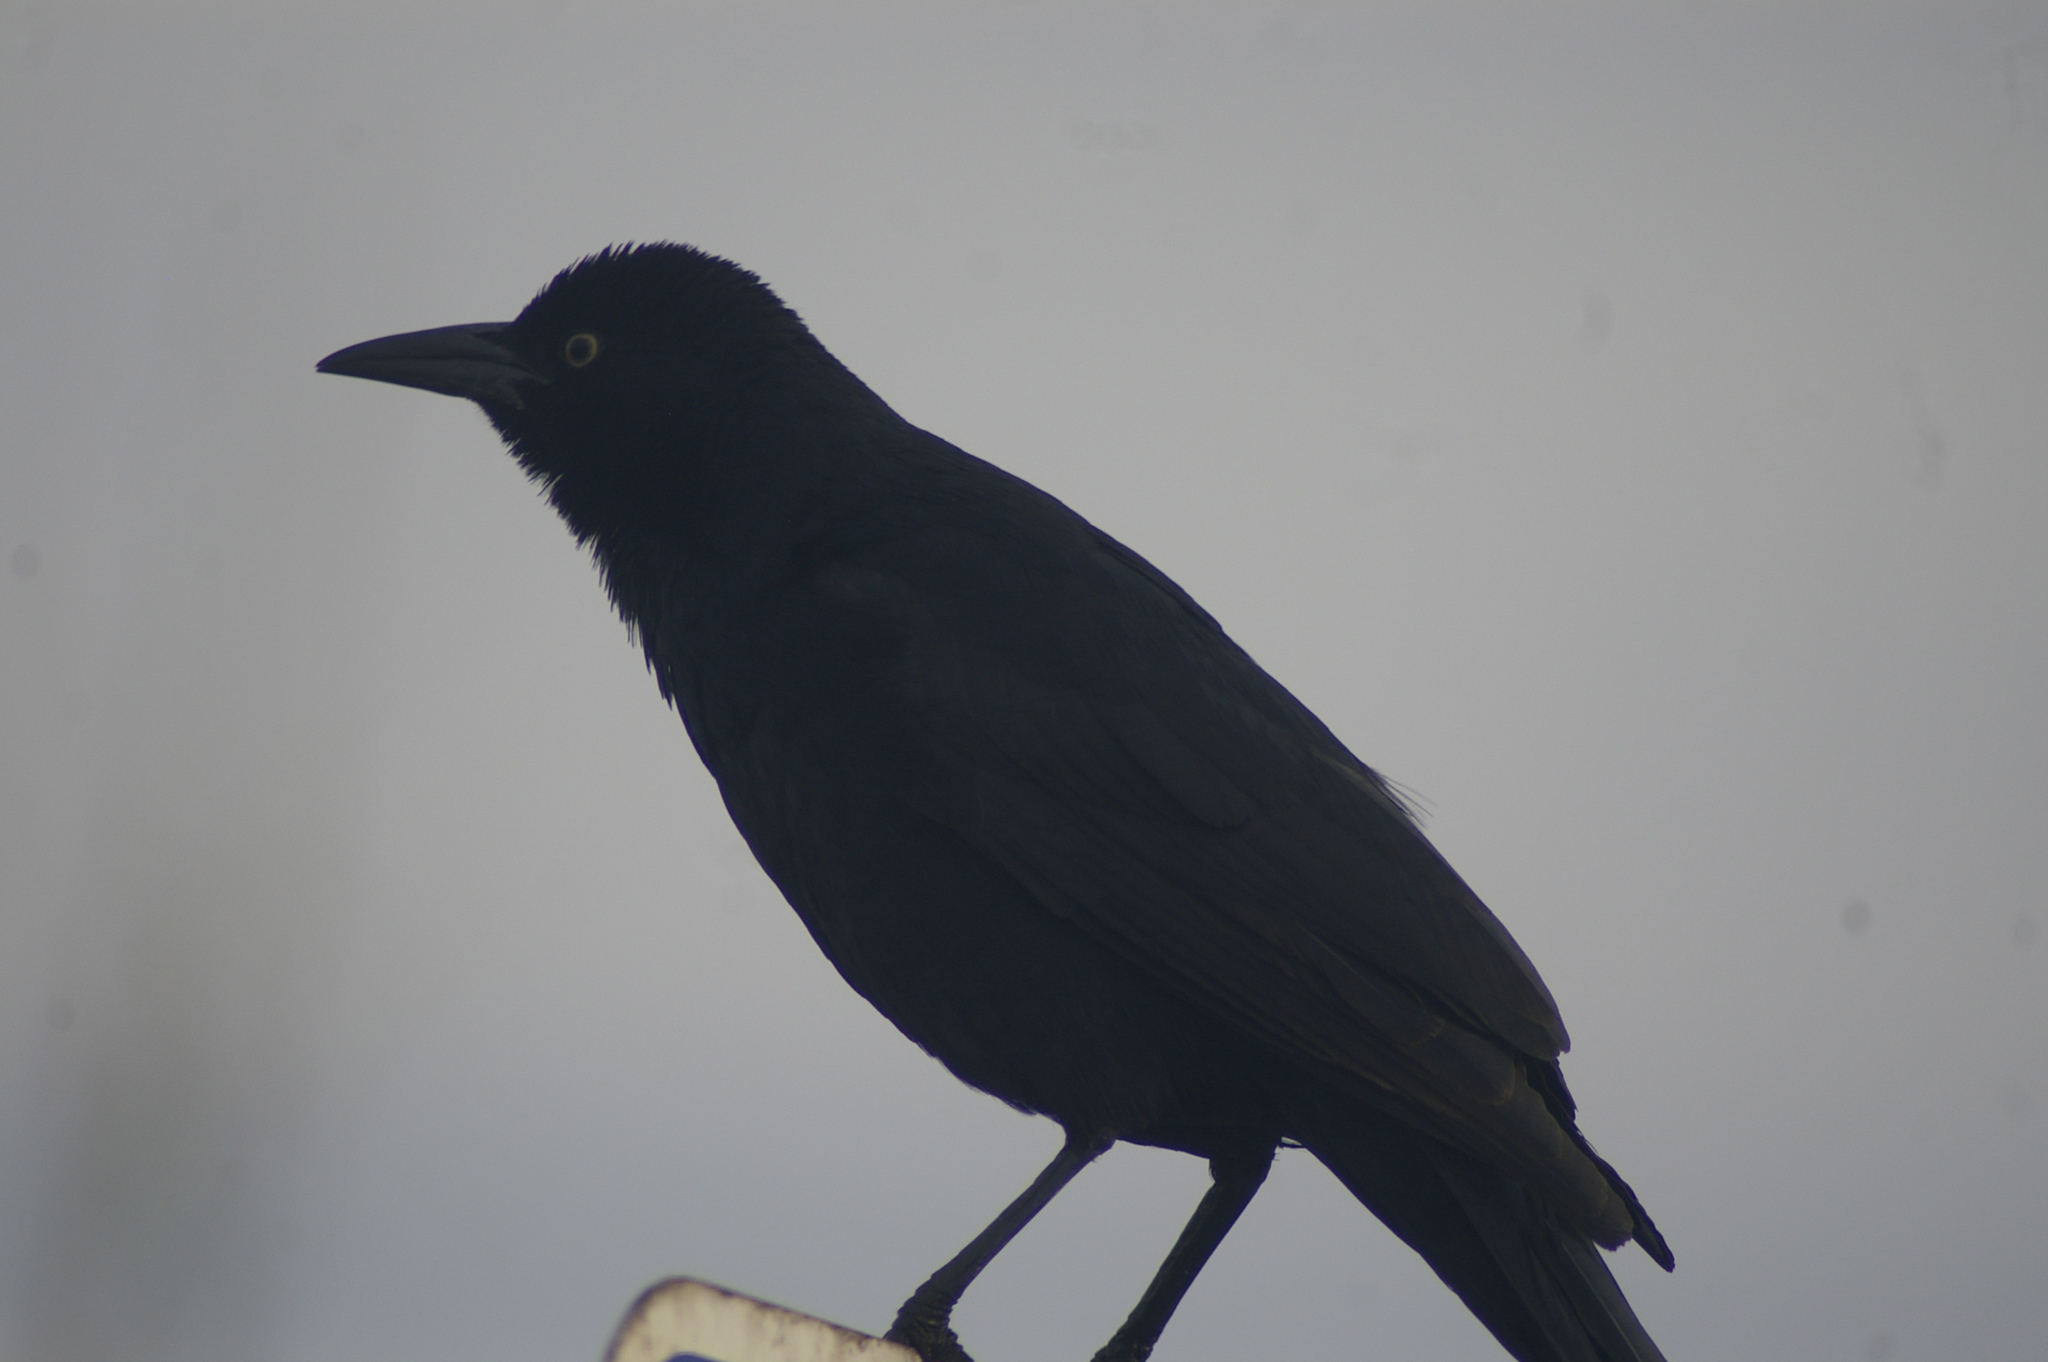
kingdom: Animalia
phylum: Chordata
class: Aves
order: Passeriformes
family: Icteridae
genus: Quiscalus
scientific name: Quiscalus mexicanus
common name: Great-tailed grackle
